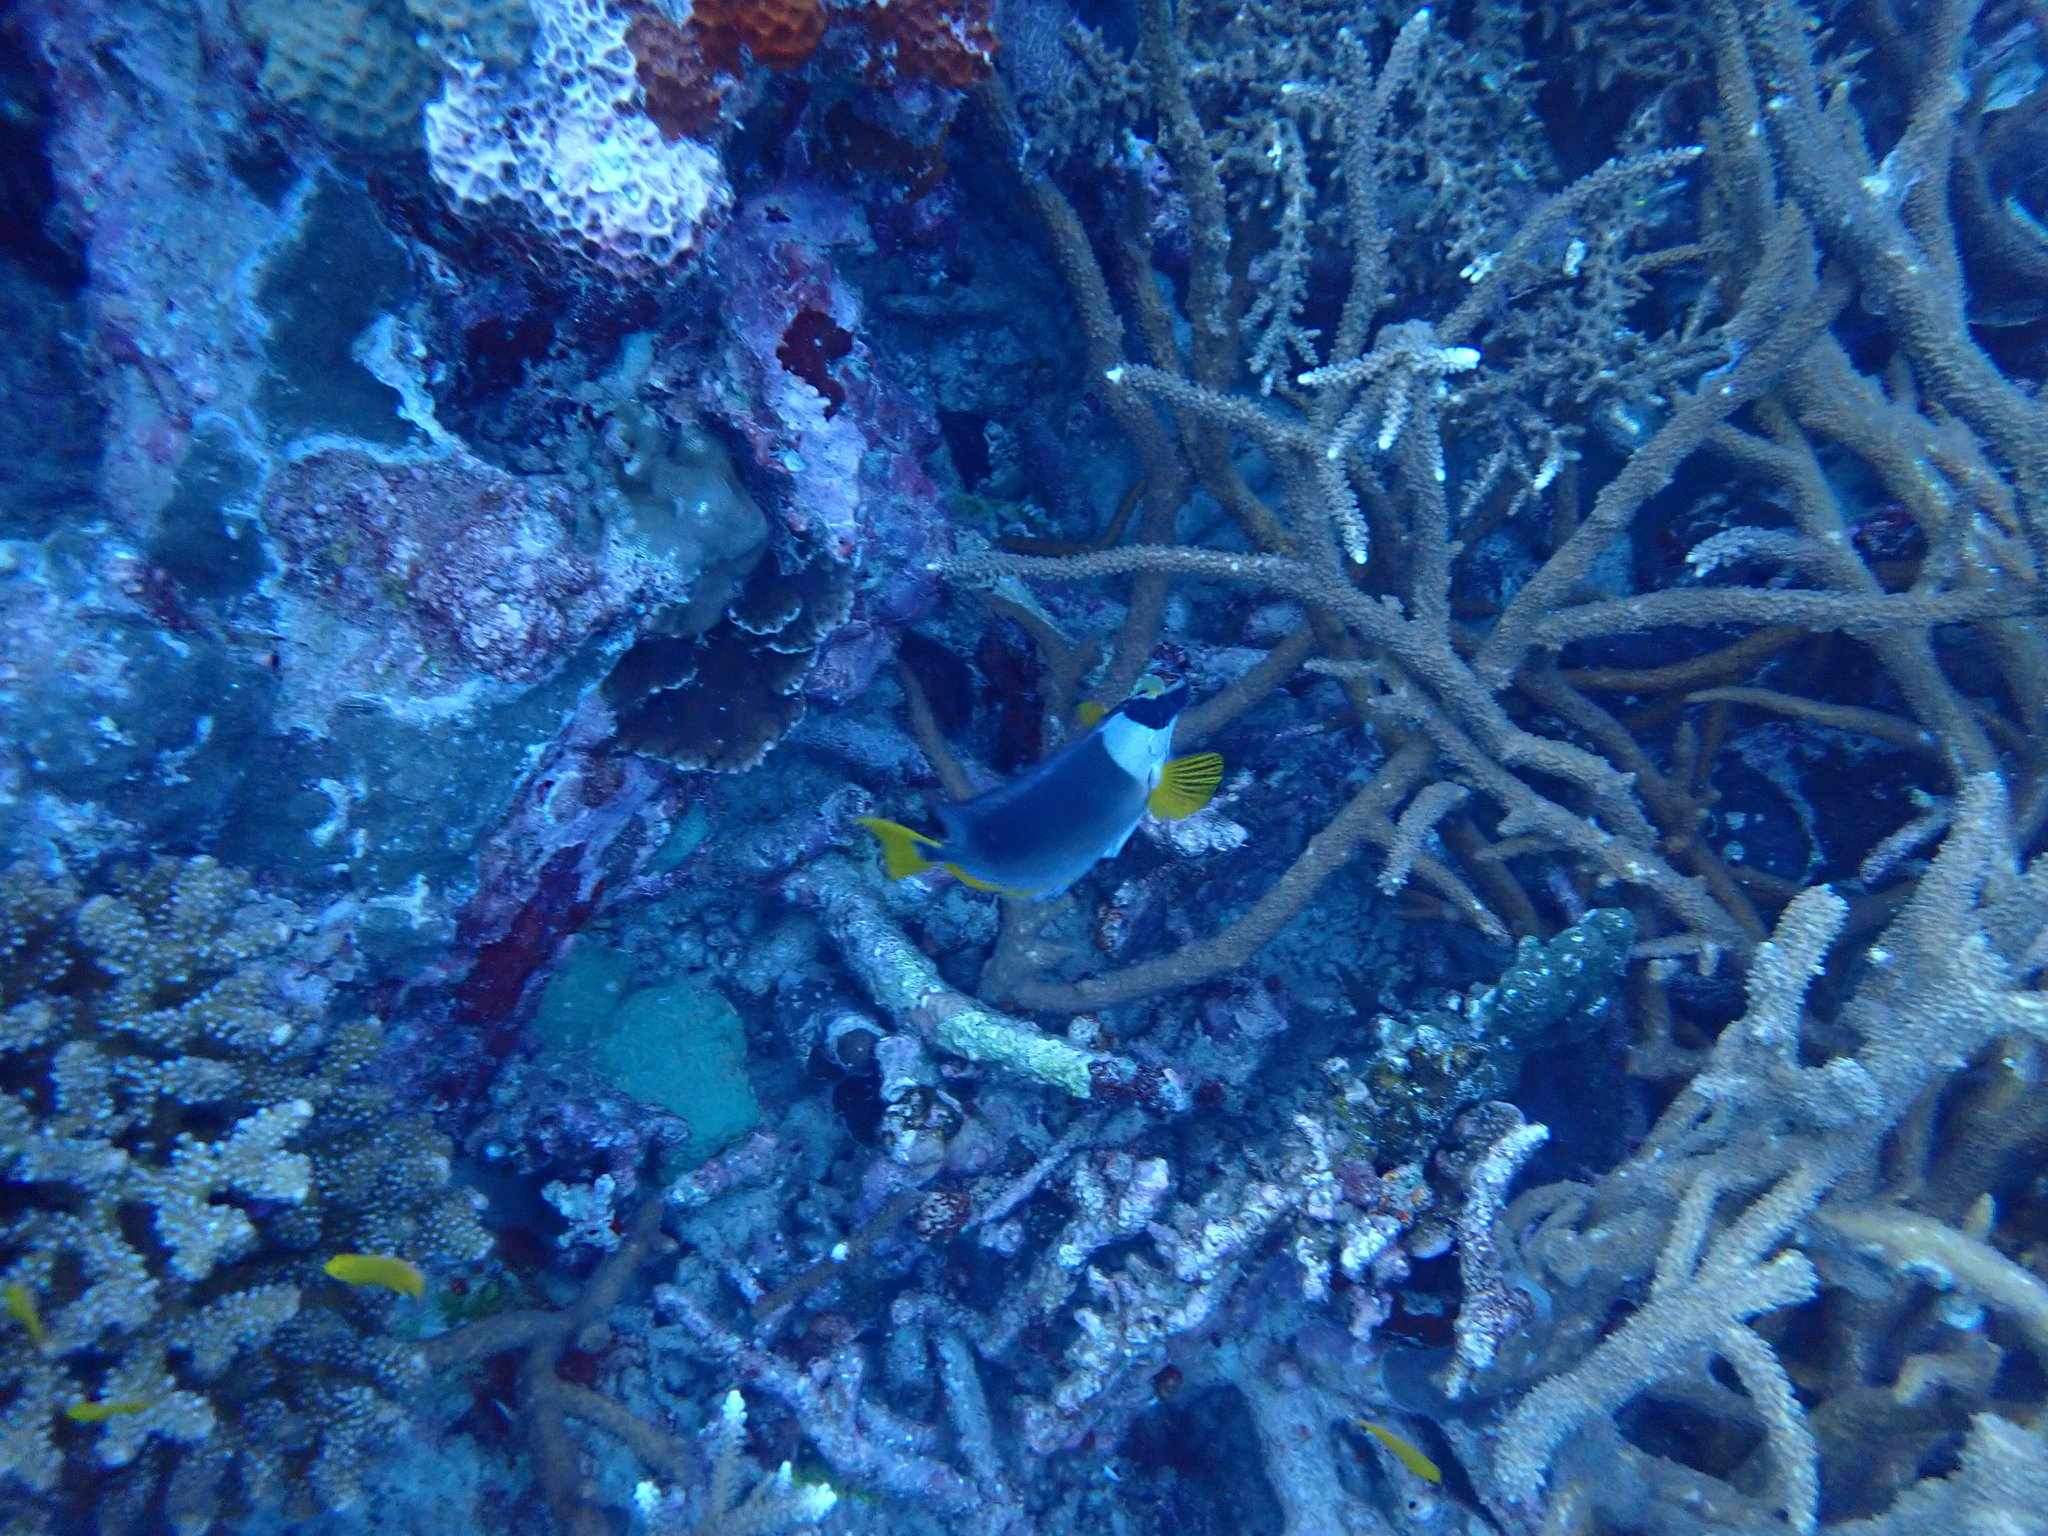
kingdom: Animalia
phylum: Chordata
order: Perciformes
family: Siganidae
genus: Siganus
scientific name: Siganus magnificus
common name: Magnificent rabbitfish
